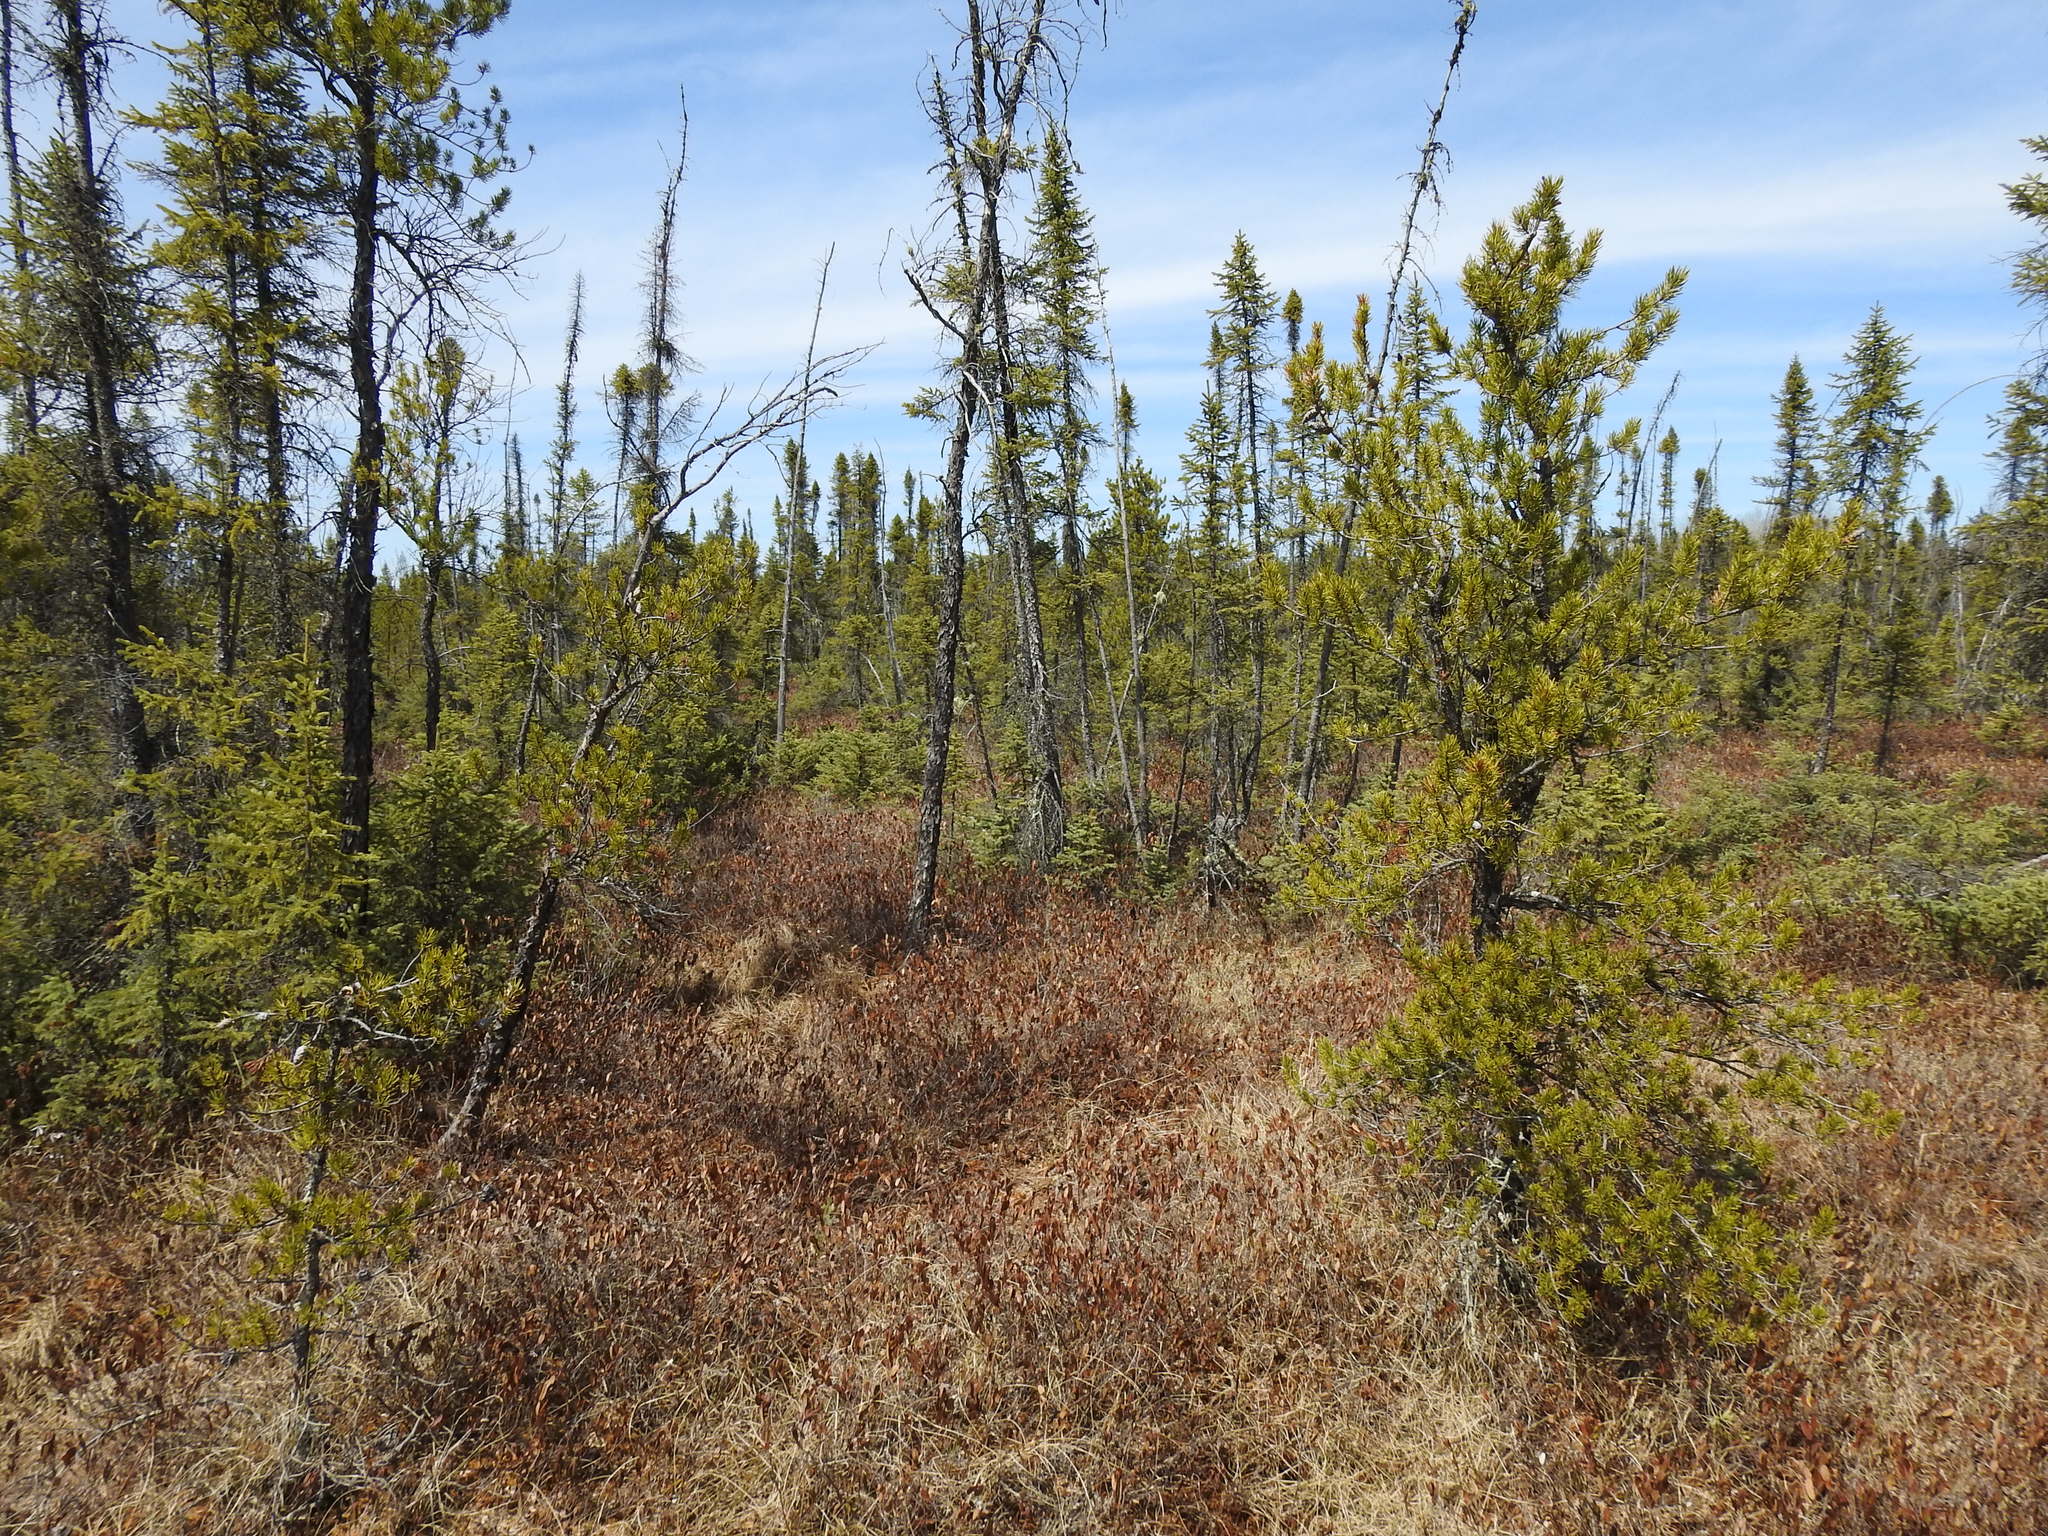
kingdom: Plantae
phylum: Tracheophyta
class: Pinopsida
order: Pinales
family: Pinaceae
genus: Pinus
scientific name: Pinus banksiana
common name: Jack pine
